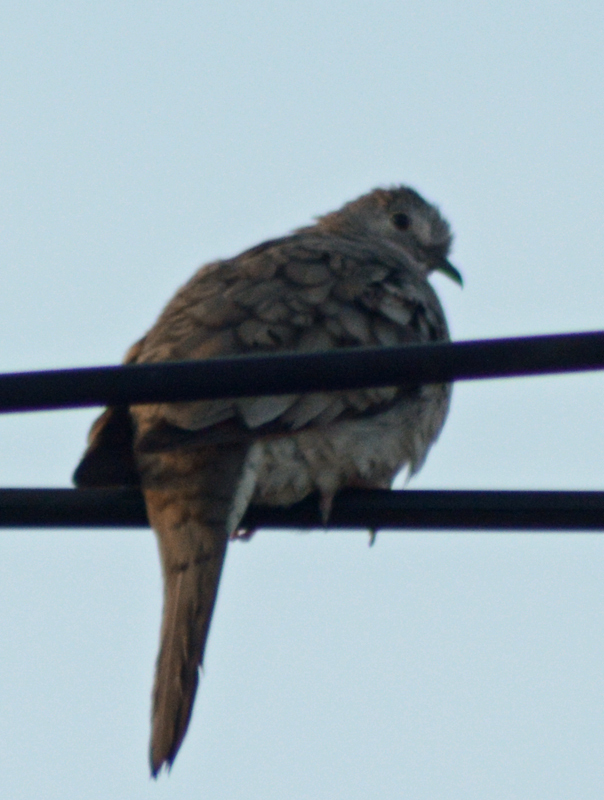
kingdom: Animalia
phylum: Chordata
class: Aves
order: Columbiformes
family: Columbidae
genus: Columbina
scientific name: Columbina inca
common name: Inca dove
